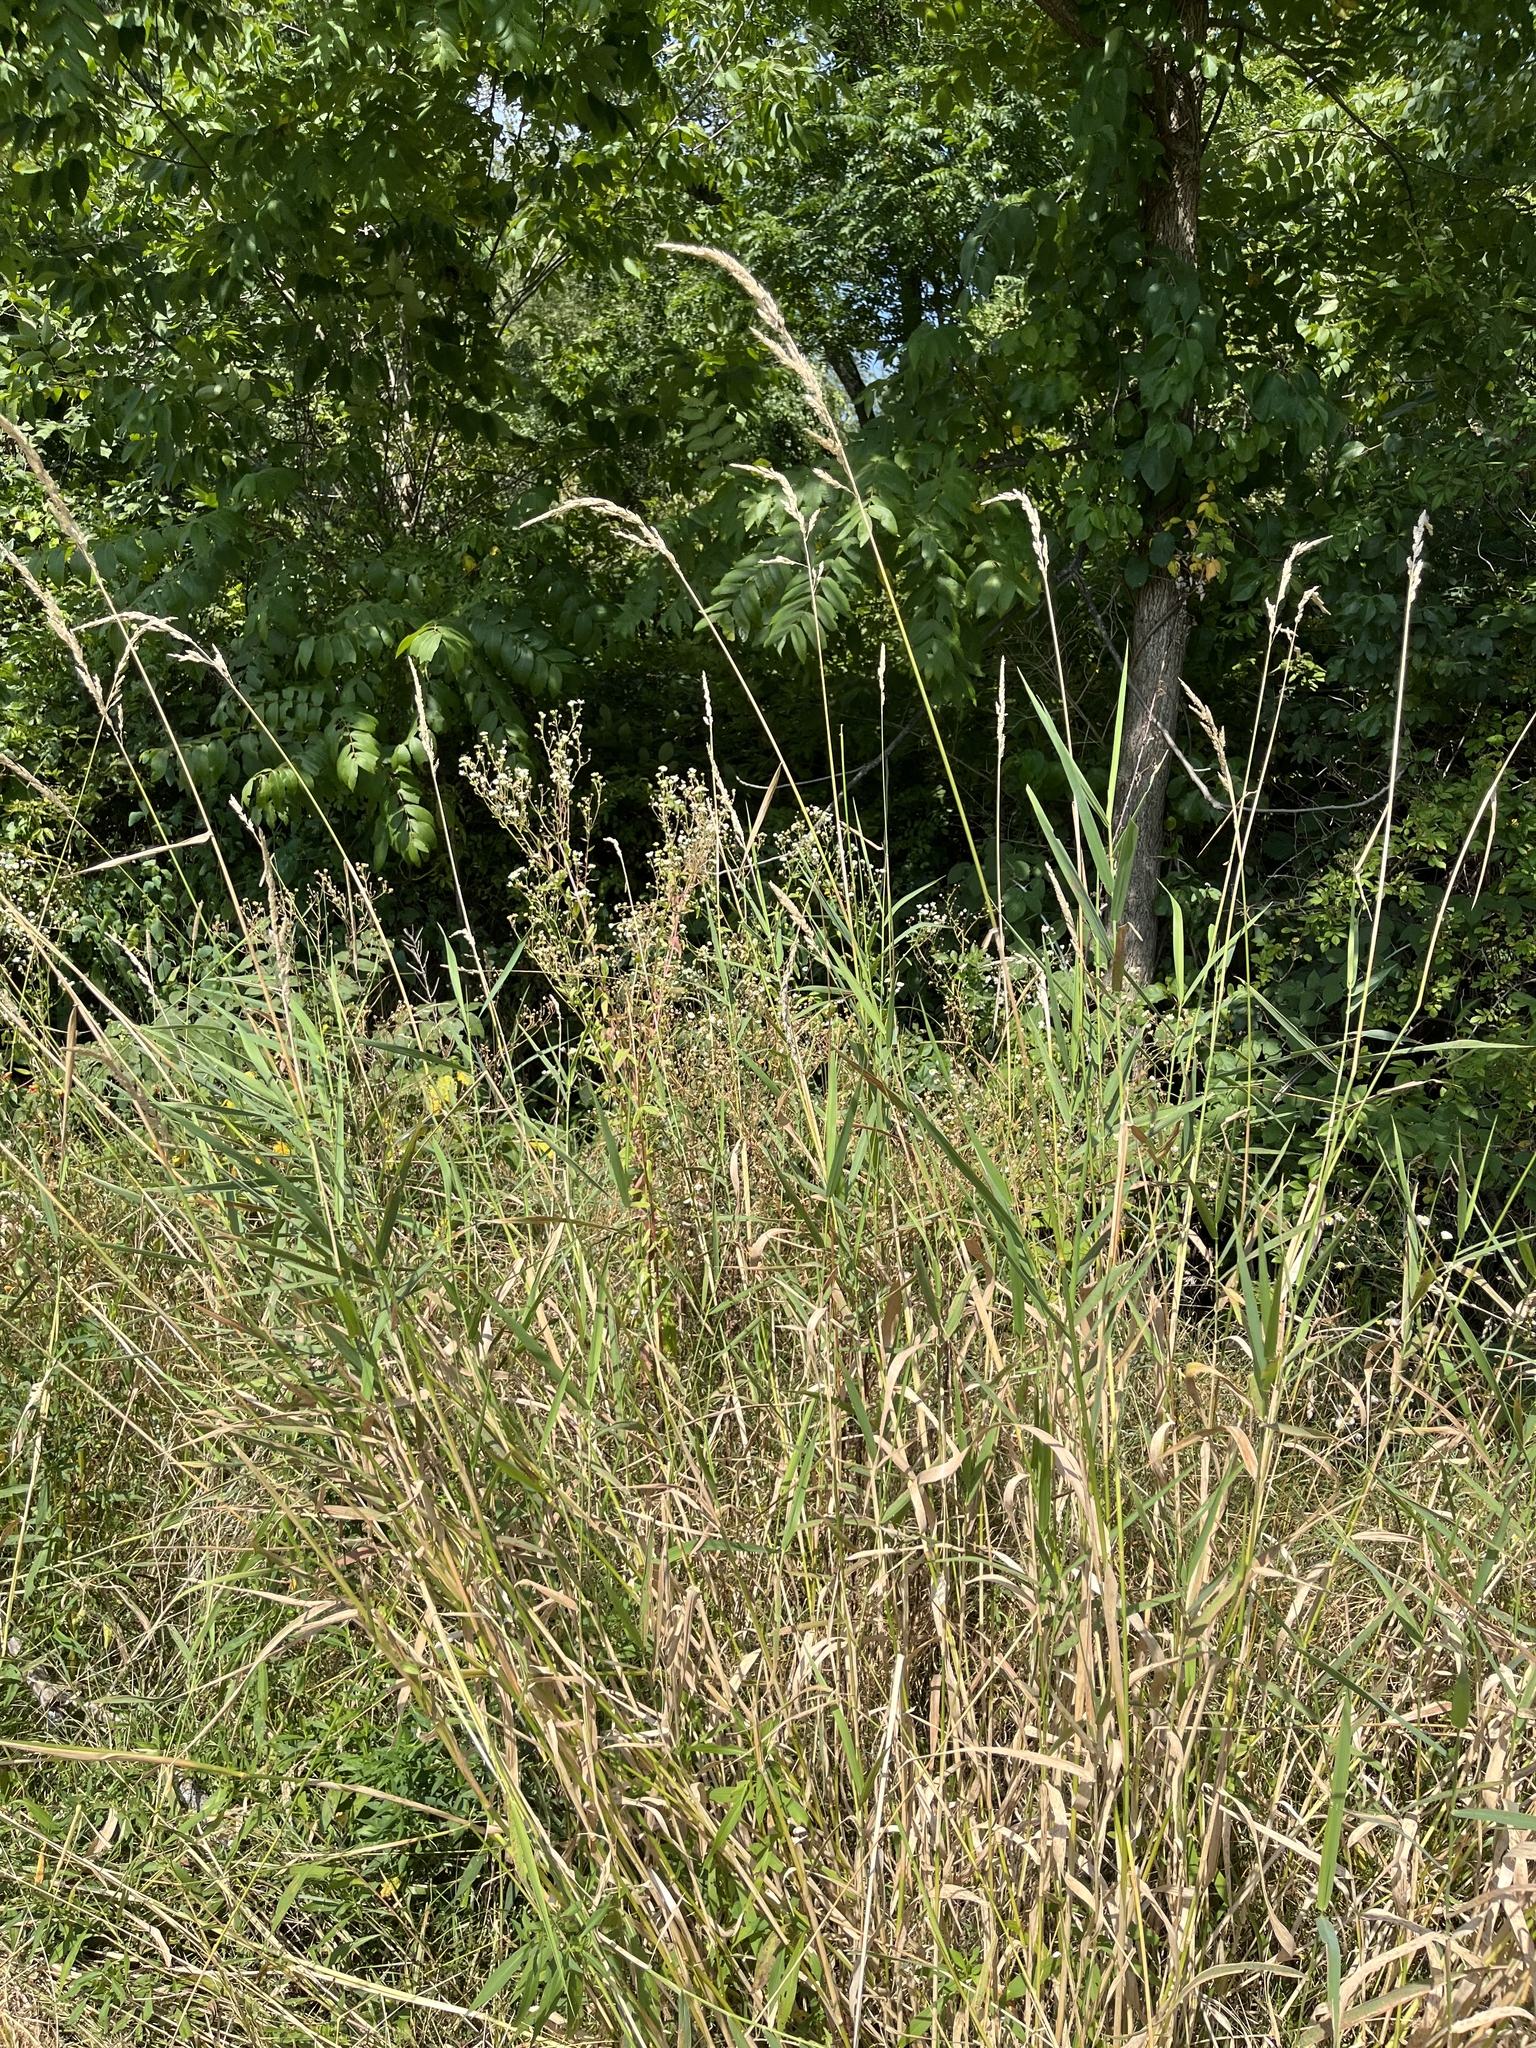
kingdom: Plantae
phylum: Tracheophyta
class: Liliopsida
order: Poales
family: Poaceae
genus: Phalaris
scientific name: Phalaris arundinacea
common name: Reed canary-grass
